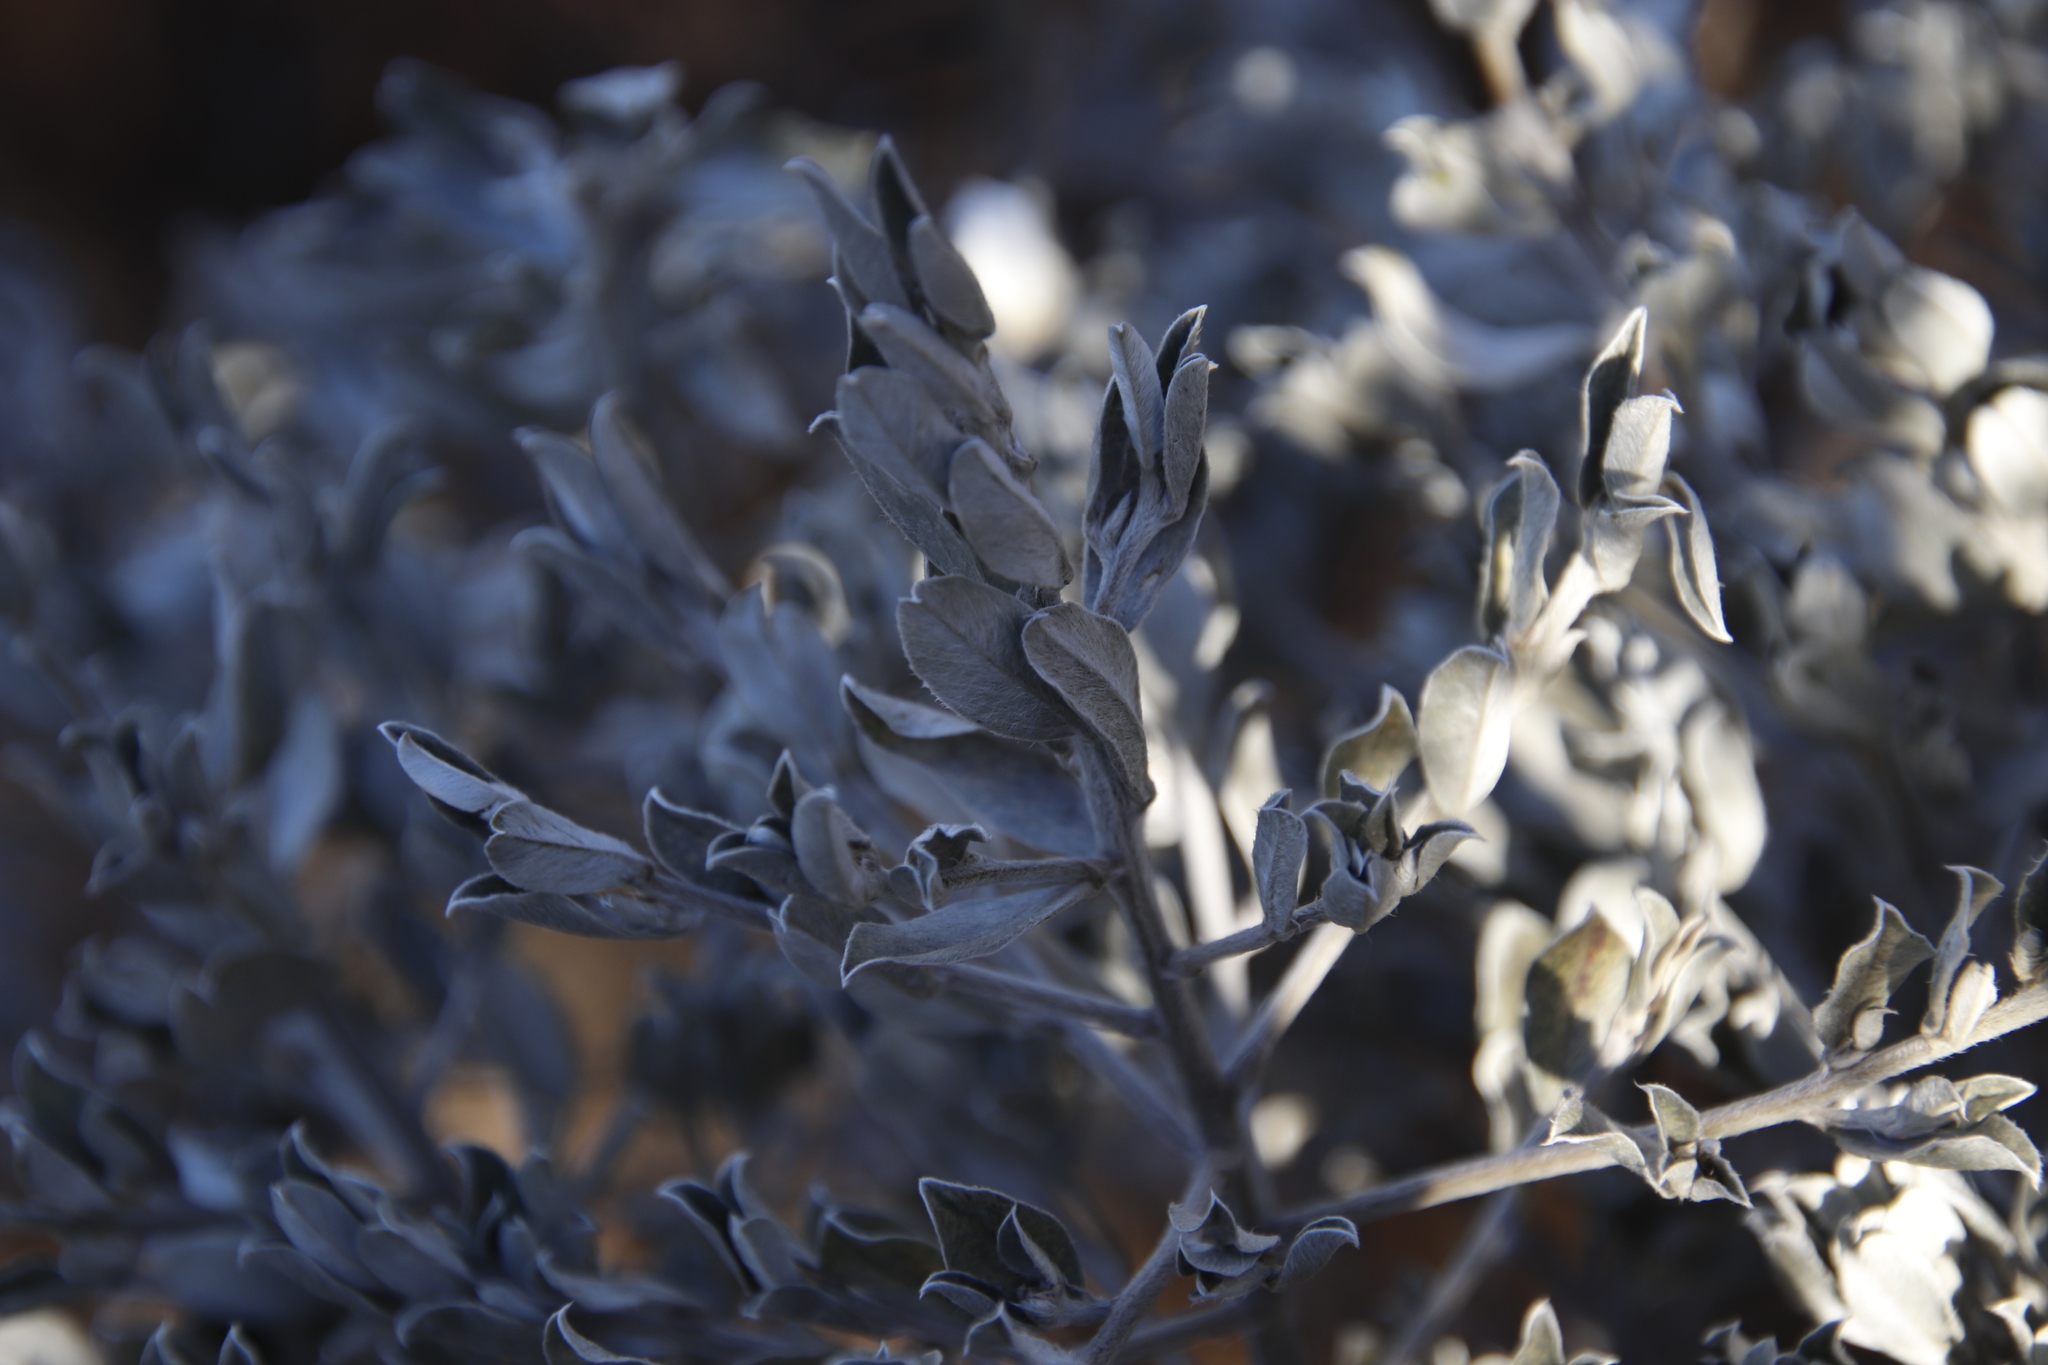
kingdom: Plantae
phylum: Tracheophyta
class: Magnoliopsida
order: Fabales
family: Fabaceae
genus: Podalyria
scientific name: Podalyria sericea
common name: Silver podalyria
